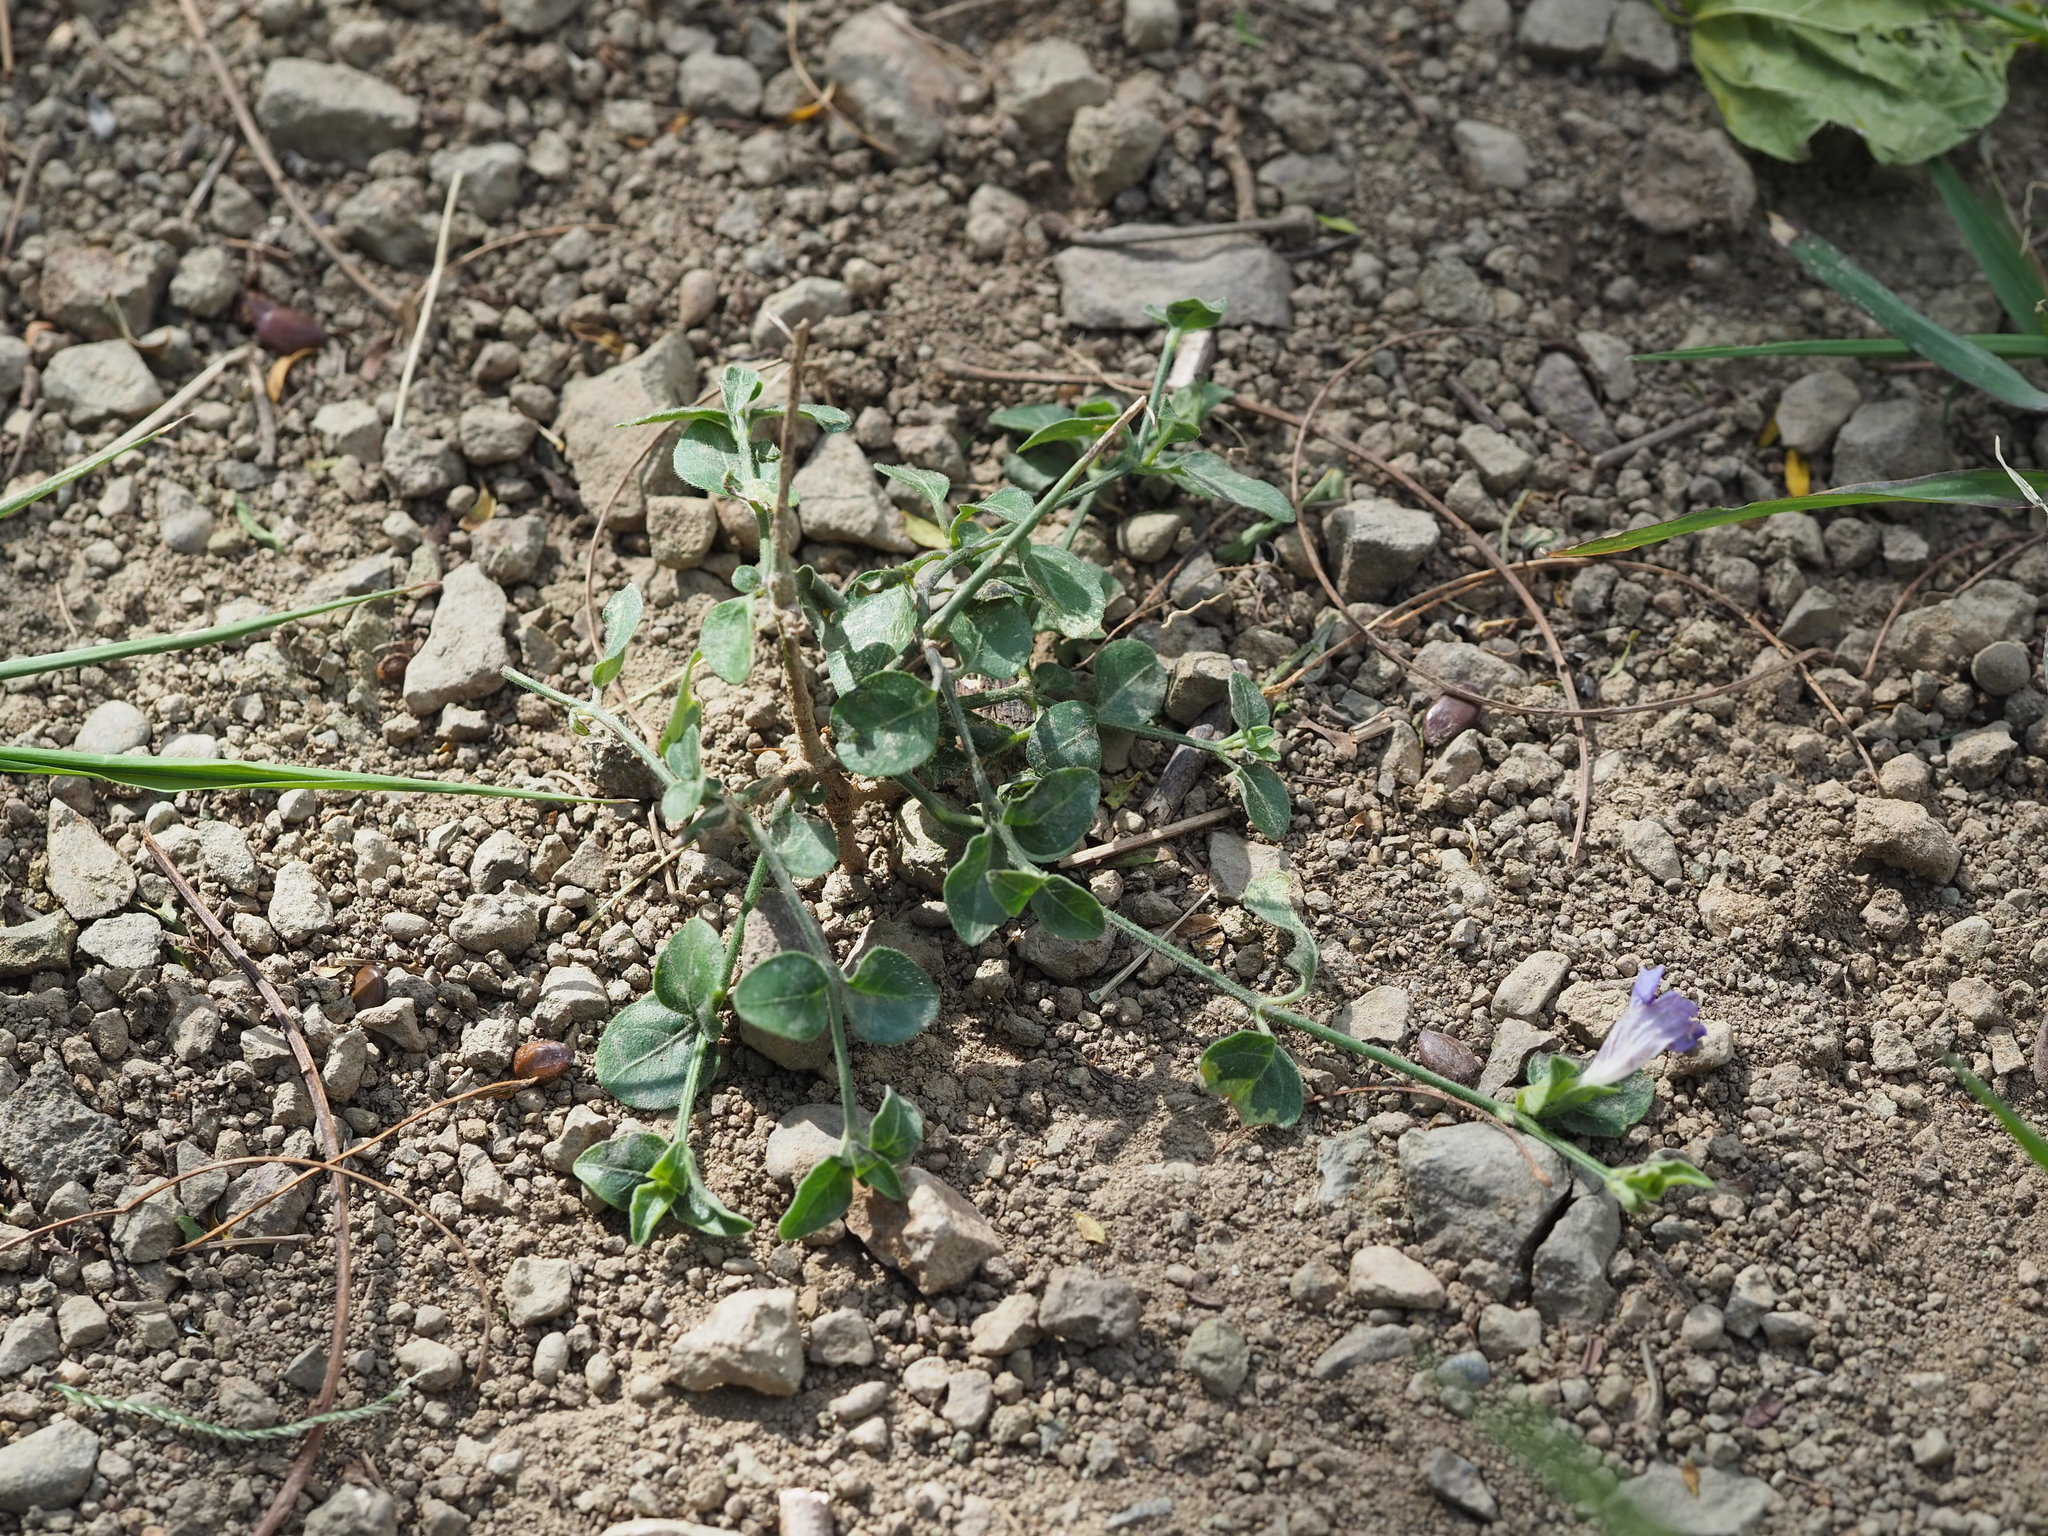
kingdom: Plantae
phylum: Tracheophyta
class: Magnoliopsida
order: Lamiales
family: Acanthaceae
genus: Ruellia
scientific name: Ruellia repens
